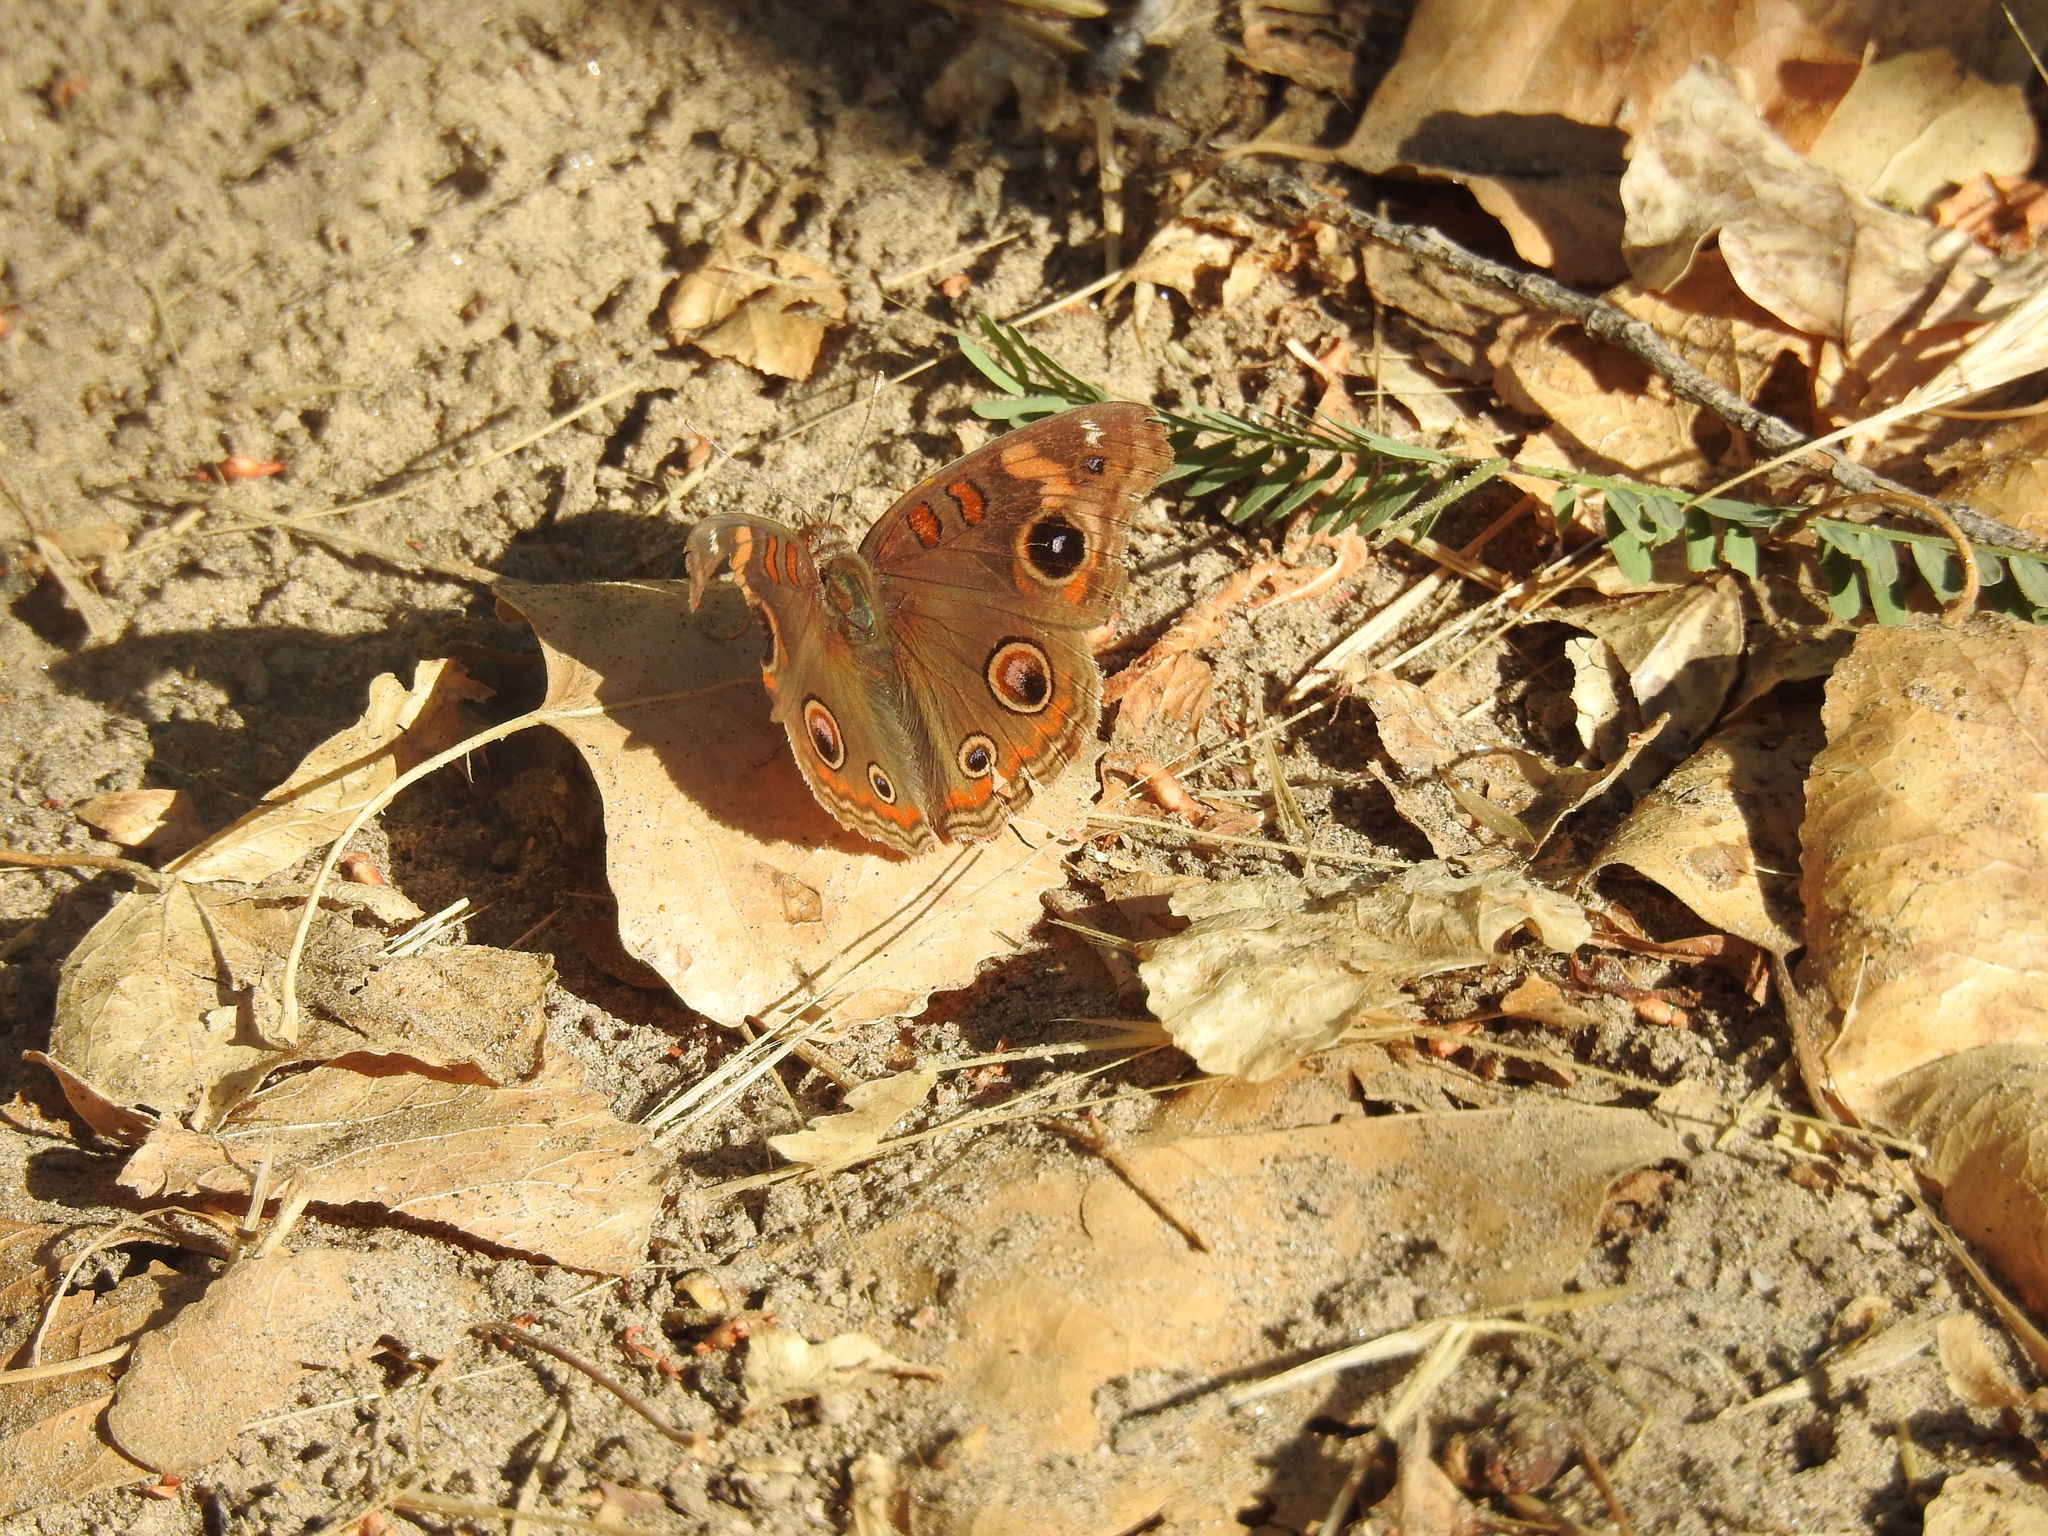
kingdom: Animalia
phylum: Arthropoda
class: Insecta
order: Lepidoptera
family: Nymphalidae
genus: Junonia
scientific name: Junonia grisea
